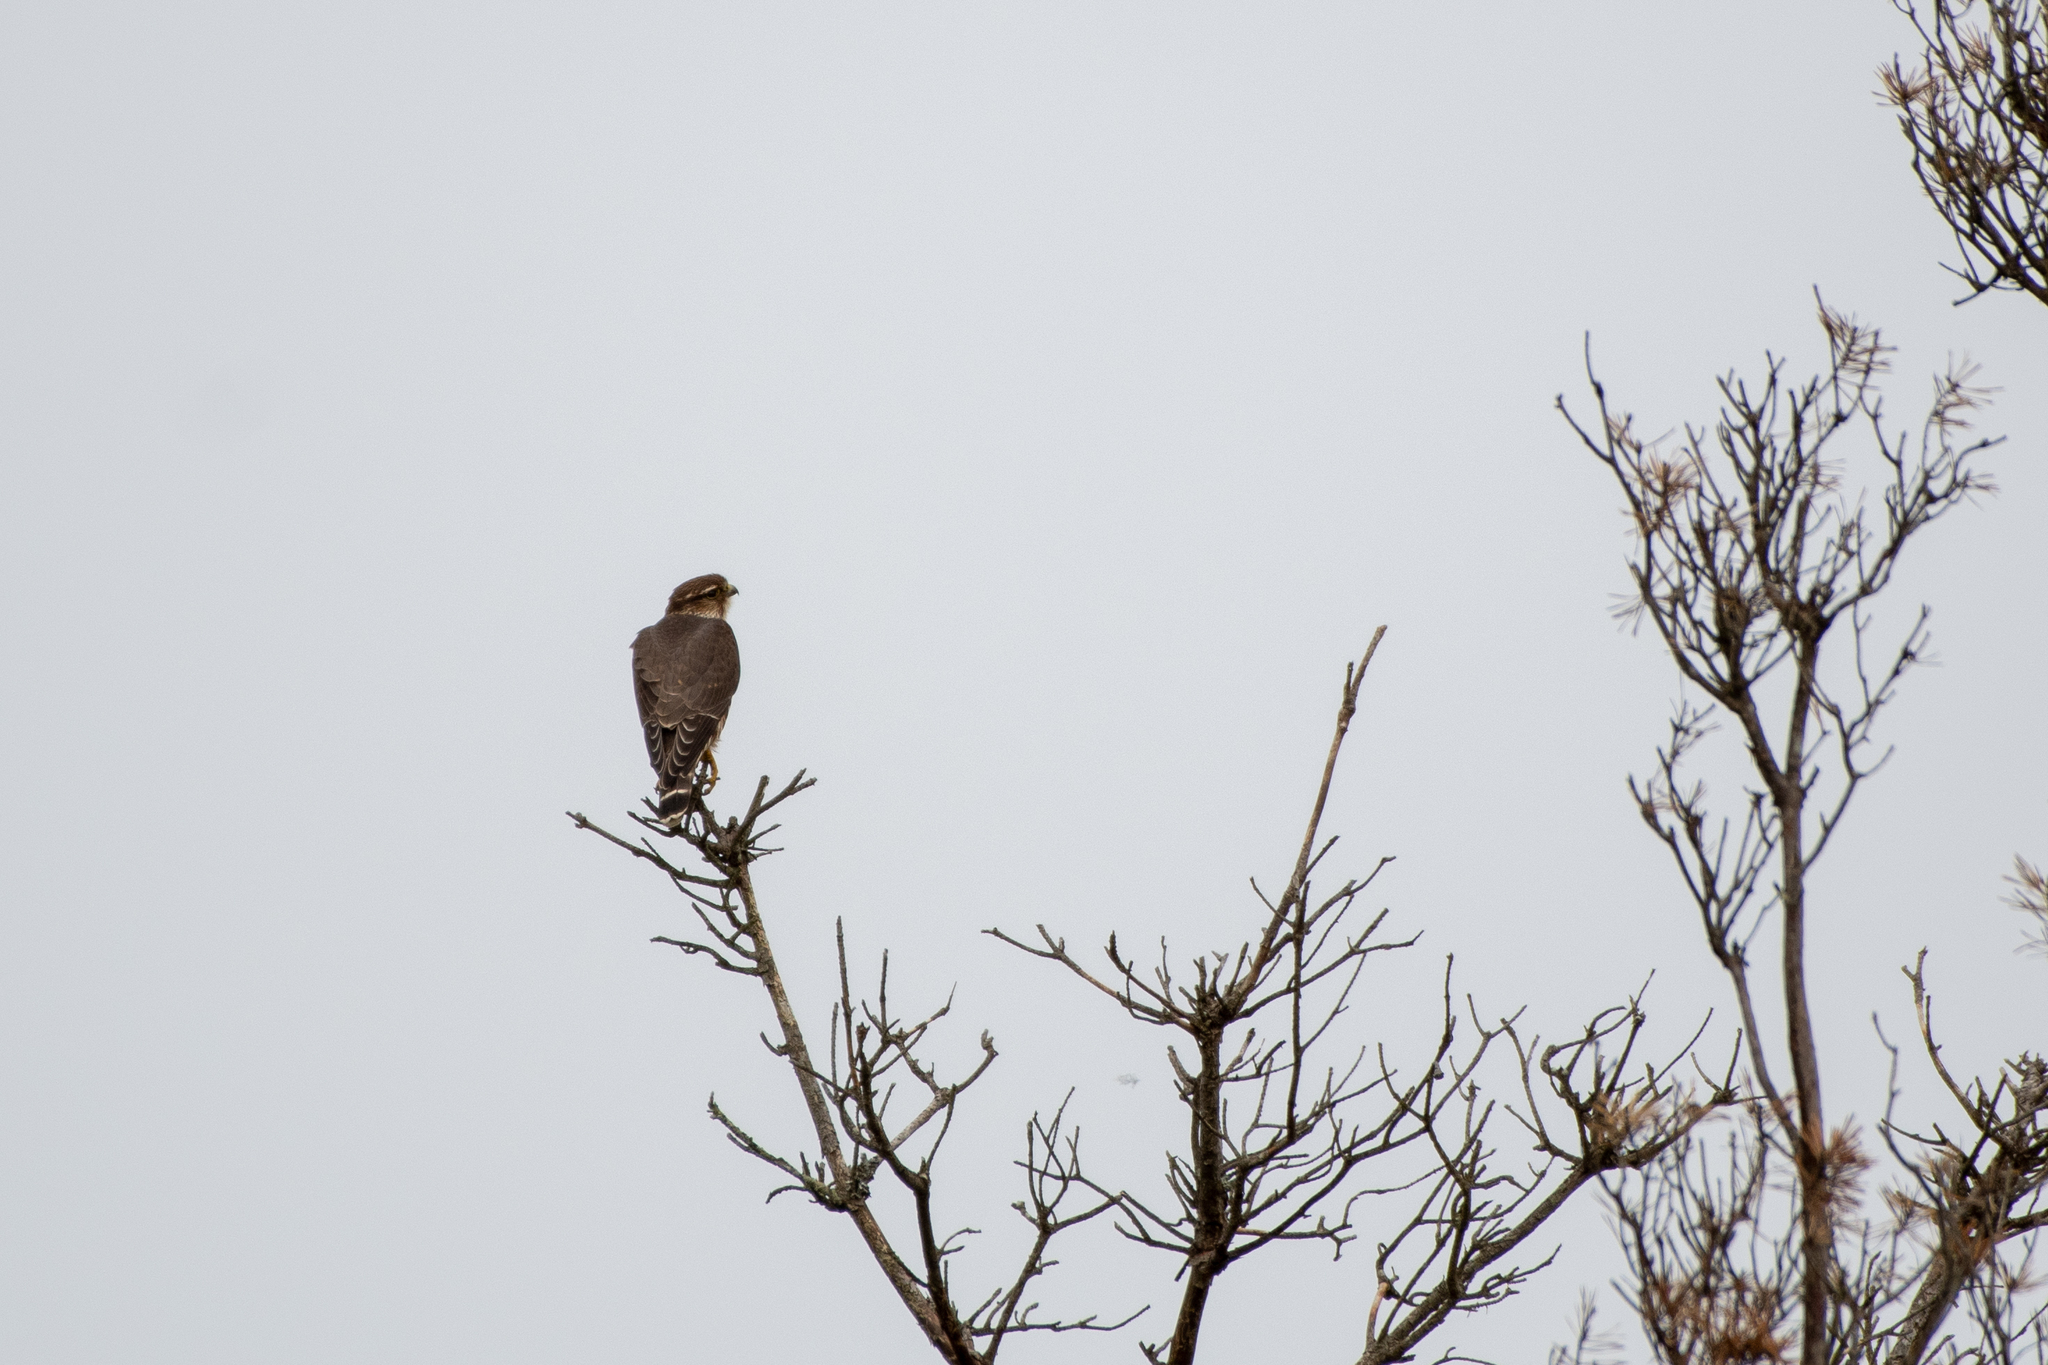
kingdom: Animalia
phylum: Chordata
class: Aves
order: Falconiformes
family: Falconidae
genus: Falco
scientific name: Falco columbarius
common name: Merlin
